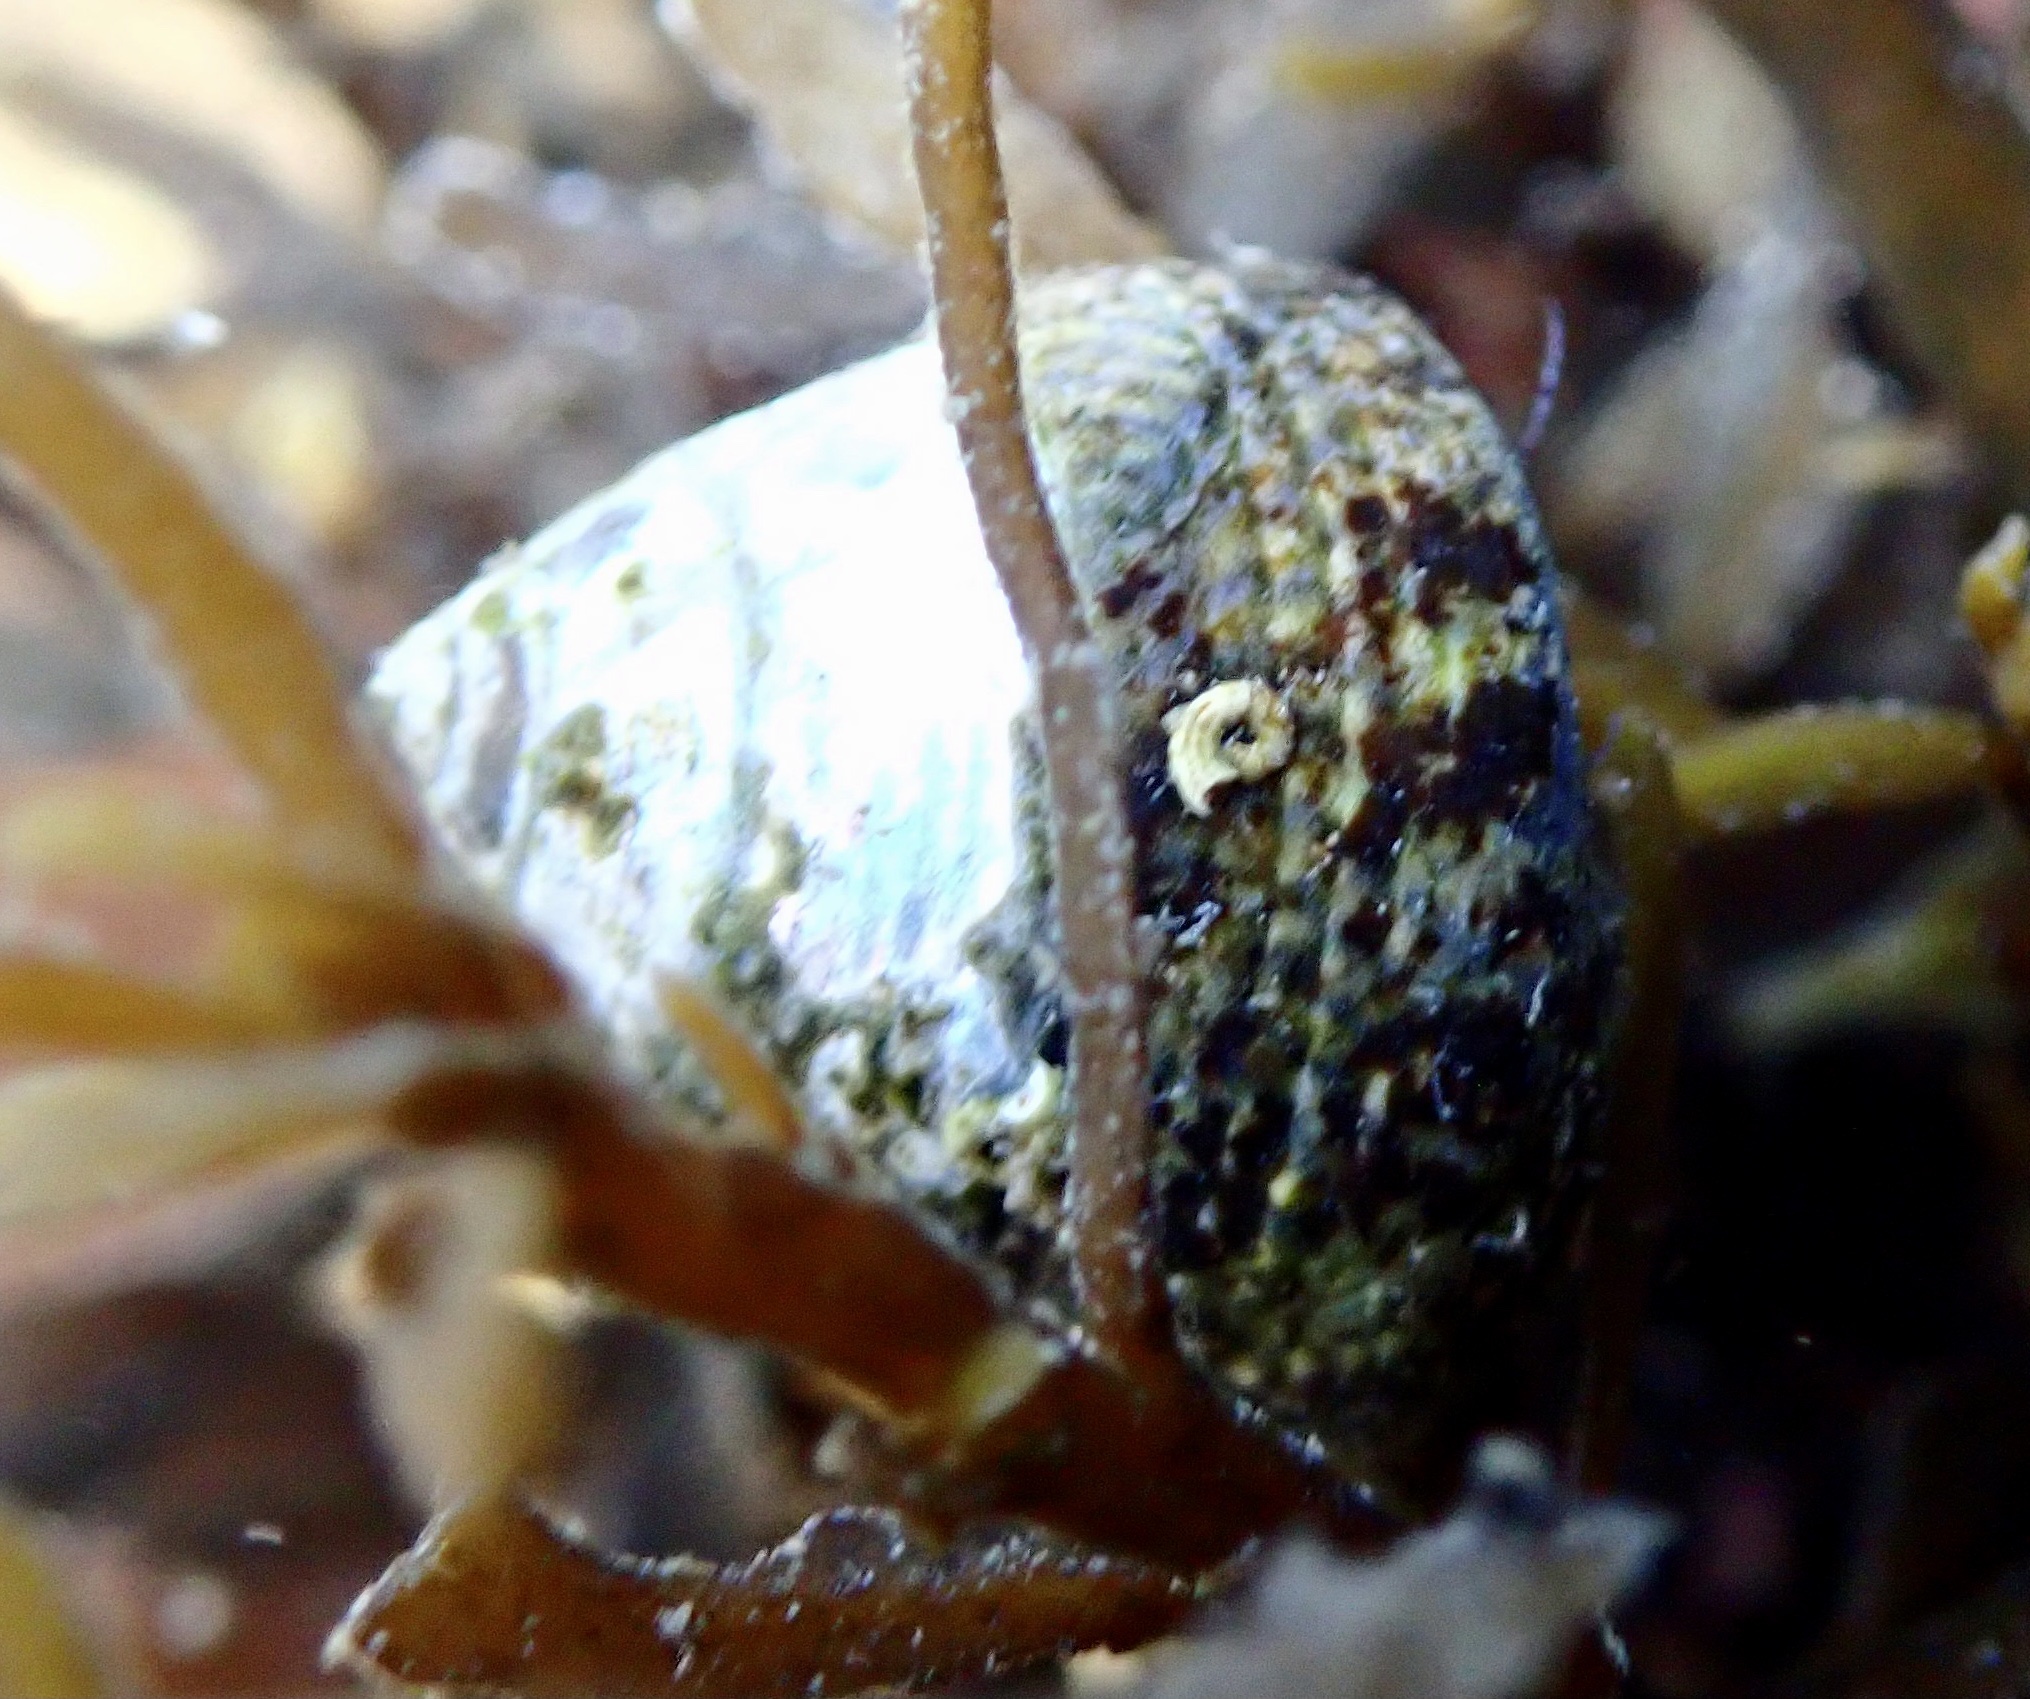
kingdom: Animalia
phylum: Mollusca
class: Gastropoda
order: Trochida
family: Trochidae
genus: Steromphala
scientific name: Steromphala cineraria
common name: Grey top shell
